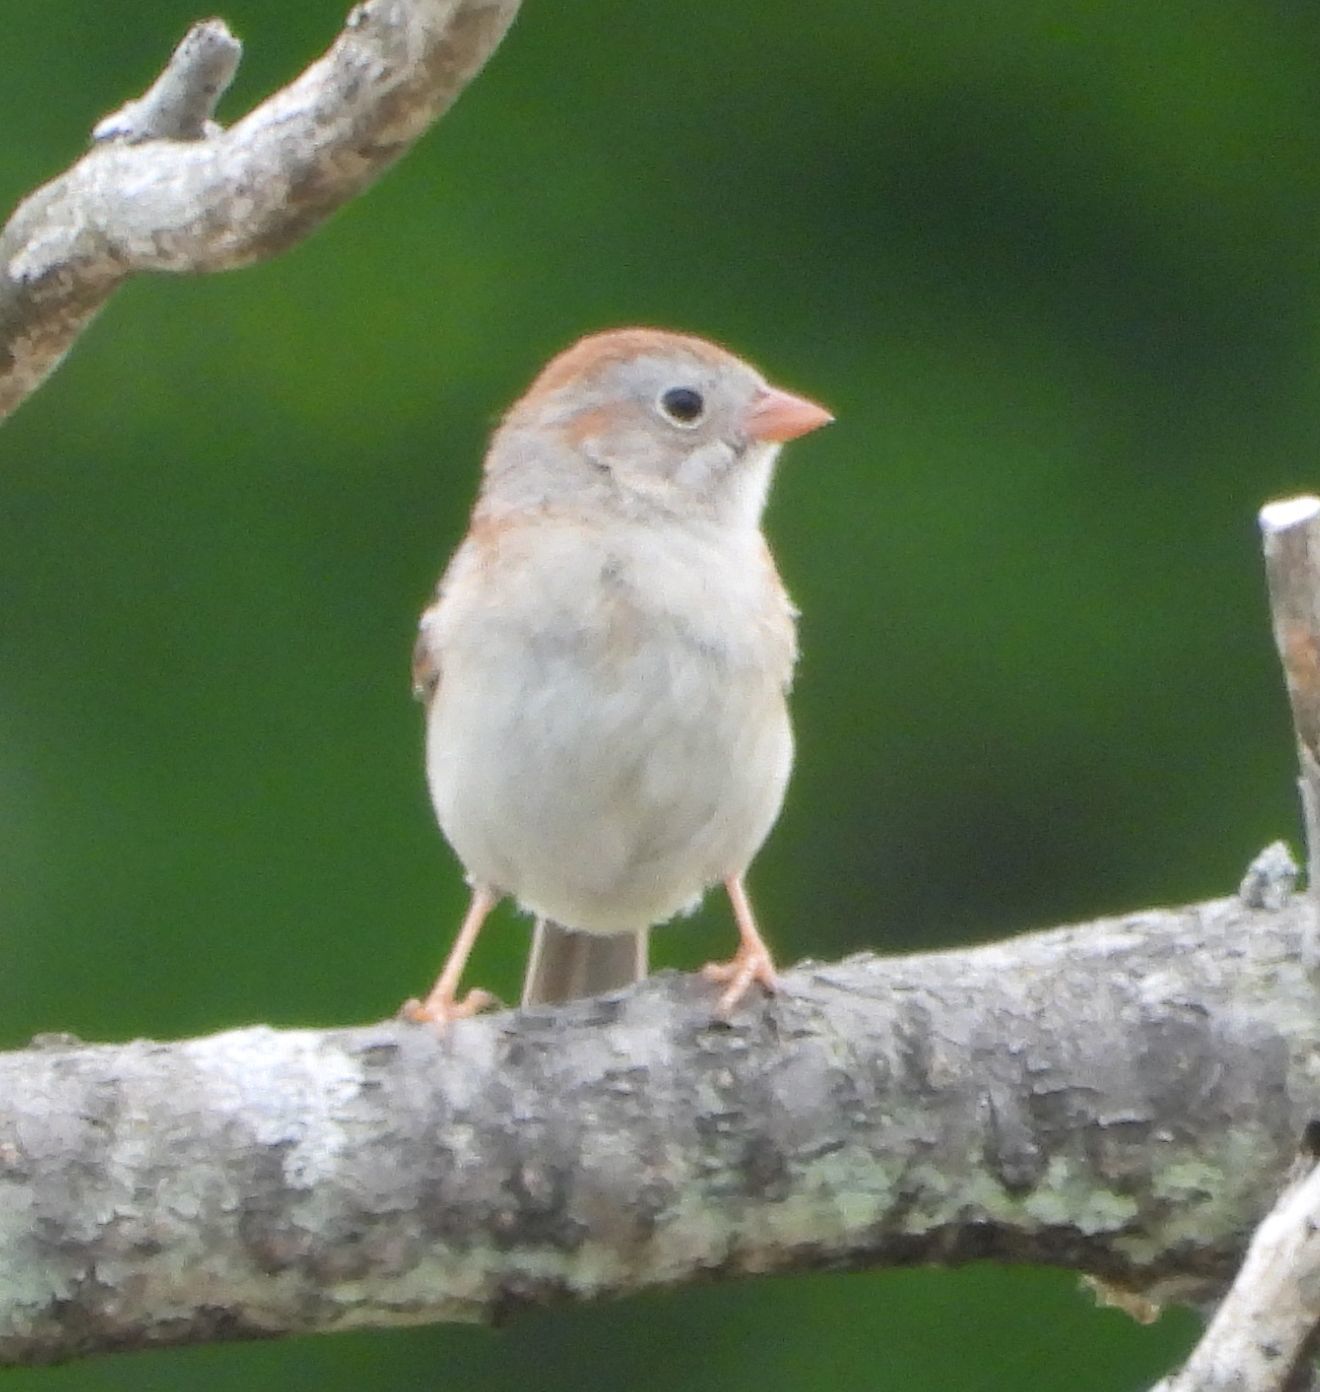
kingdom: Animalia
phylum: Chordata
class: Aves
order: Passeriformes
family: Passerellidae
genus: Spizella
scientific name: Spizella pusilla
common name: Field sparrow
